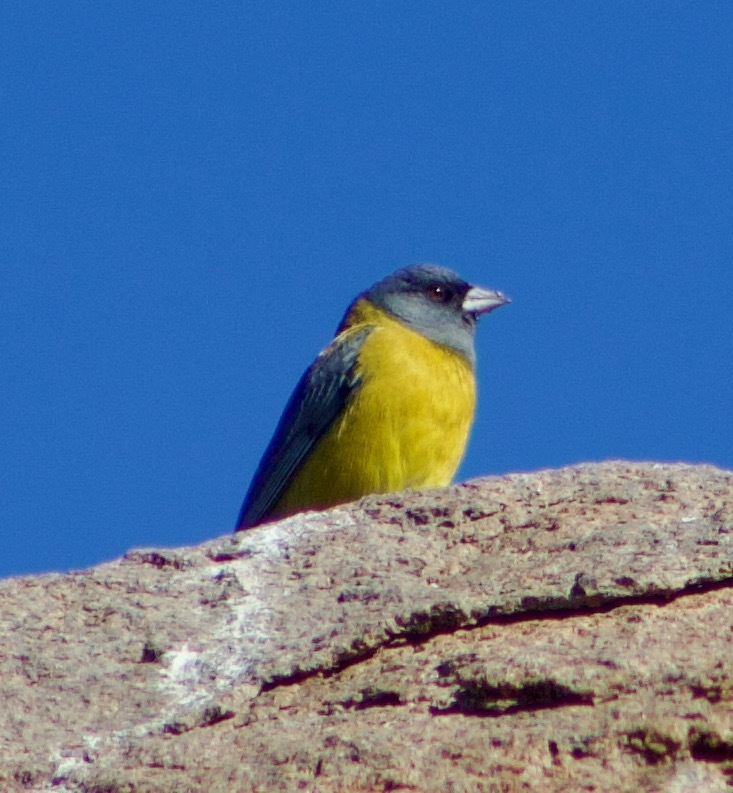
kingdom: Animalia
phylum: Chordata
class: Aves
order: Passeriformes
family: Thraupidae
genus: Phrygilus
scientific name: Phrygilus gayi
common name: Grey-hooded sierra finch
